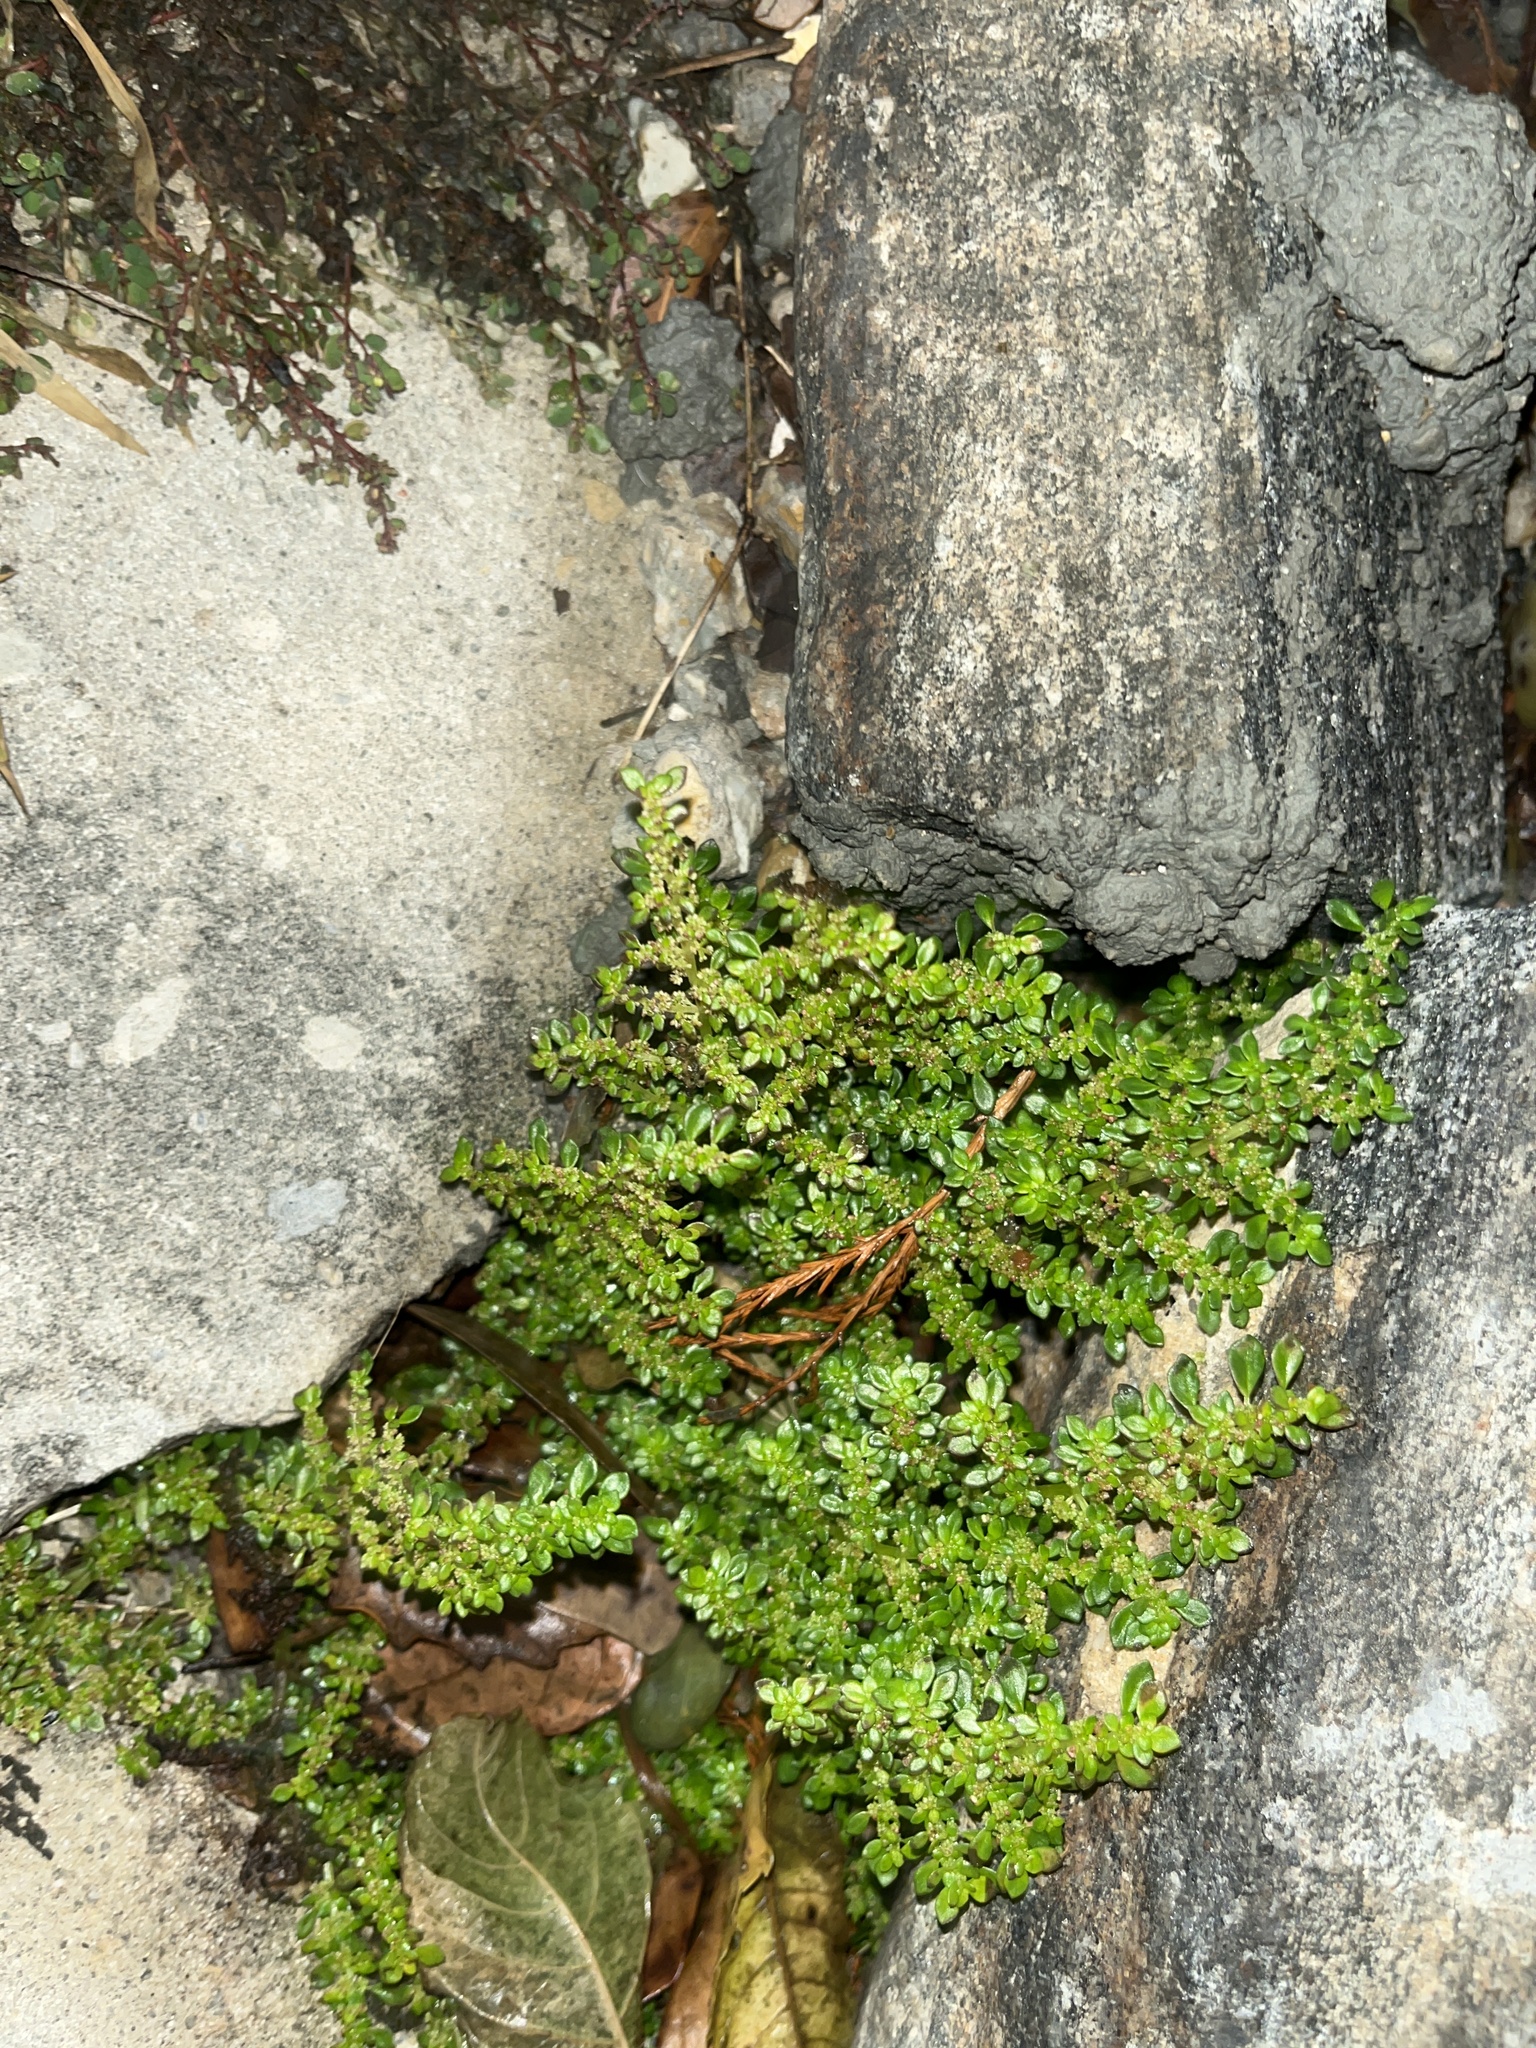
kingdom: Plantae
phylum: Tracheophyta
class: Magnoliopsida
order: Rosales
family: Urticaceae
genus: Pilea
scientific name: Pilea microphylla
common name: Artillery-plant
